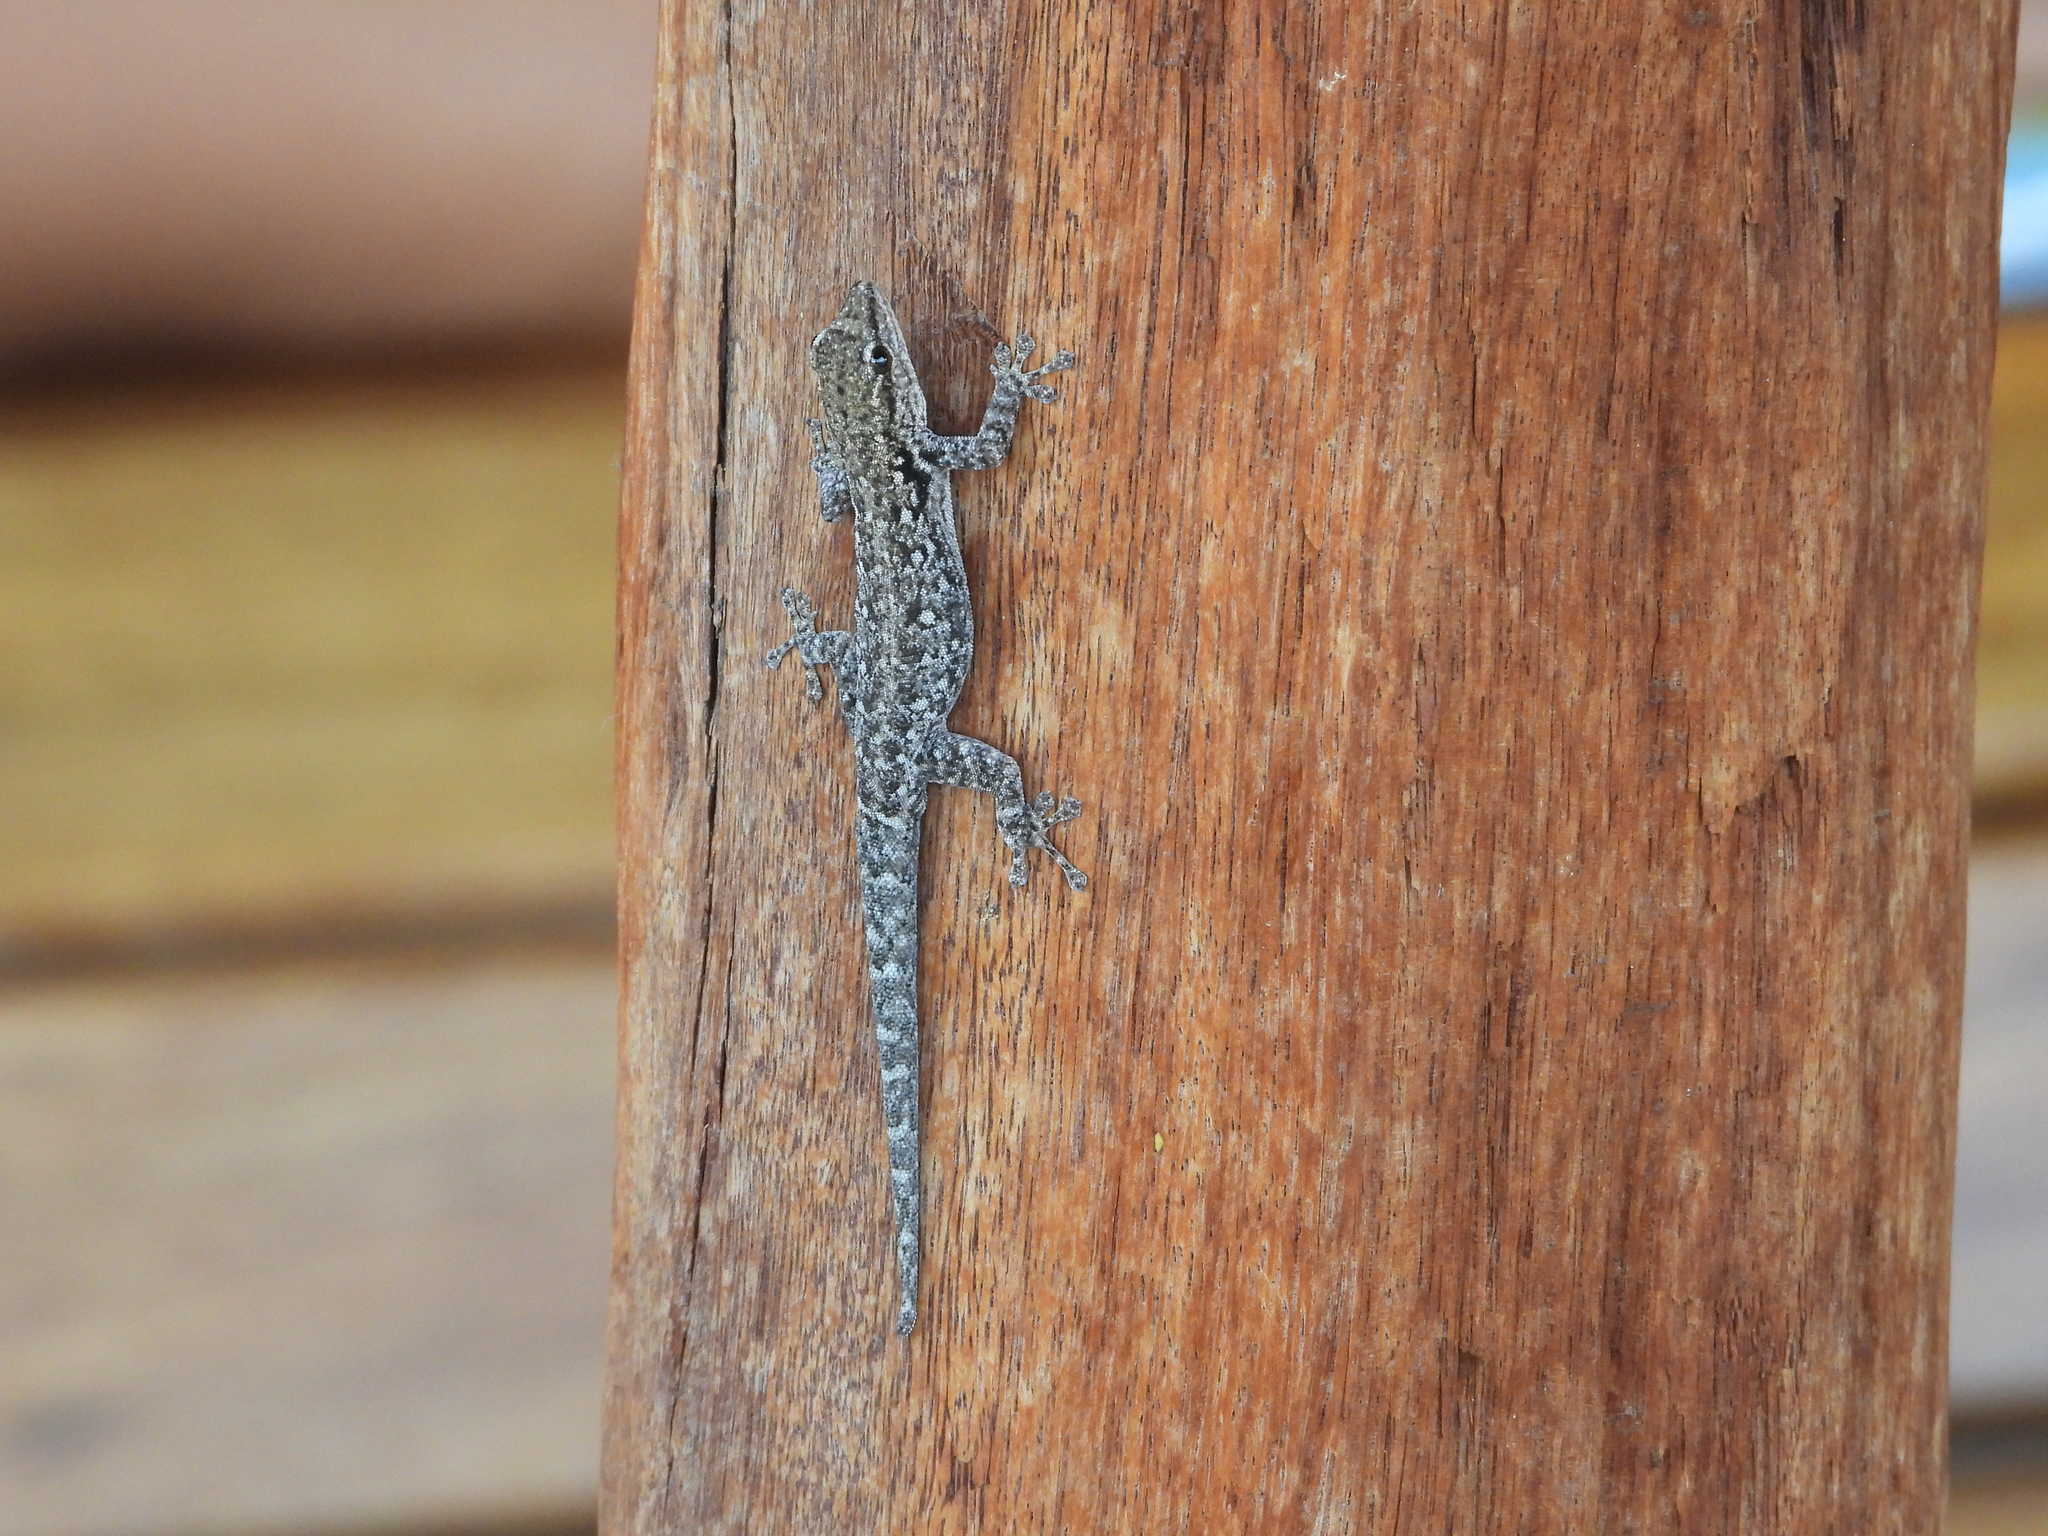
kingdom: Animalia
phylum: Chordata
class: Squamata
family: Gekkonidae
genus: Lygodactylus
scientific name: Lygodactylus chobiensis
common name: Okavango dwarf gecko
